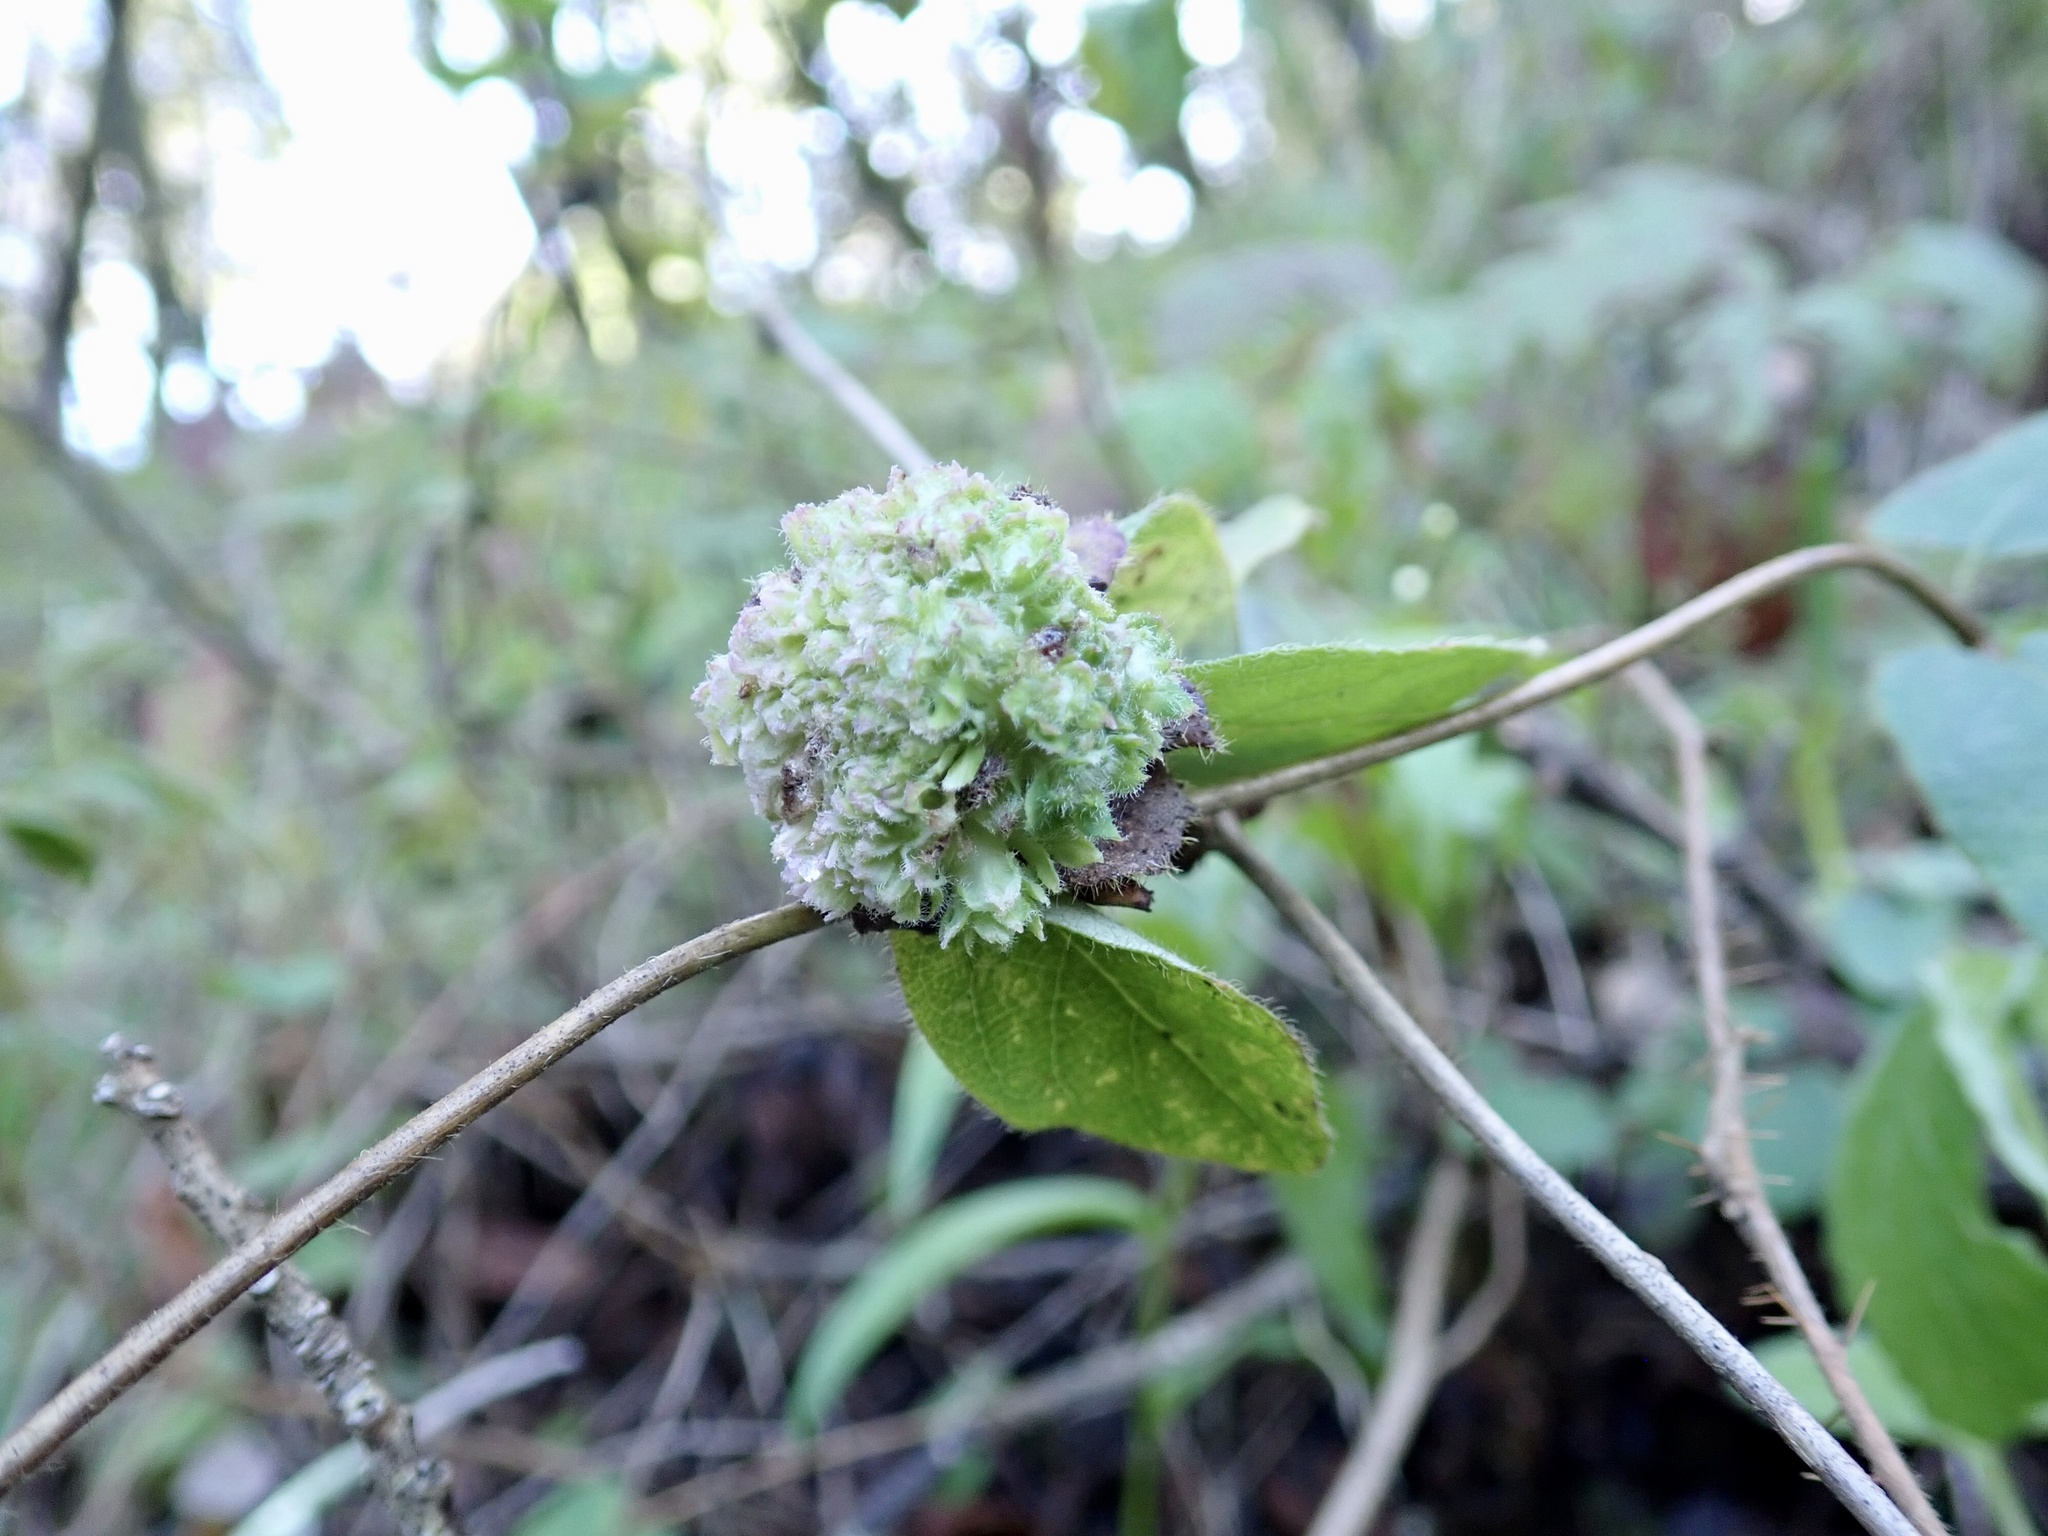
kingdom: Animalia
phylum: Arthropoda
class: Insecta
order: Diptera
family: Cecidomyiidae
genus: Lonicerae
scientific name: Lonicerae russoi
